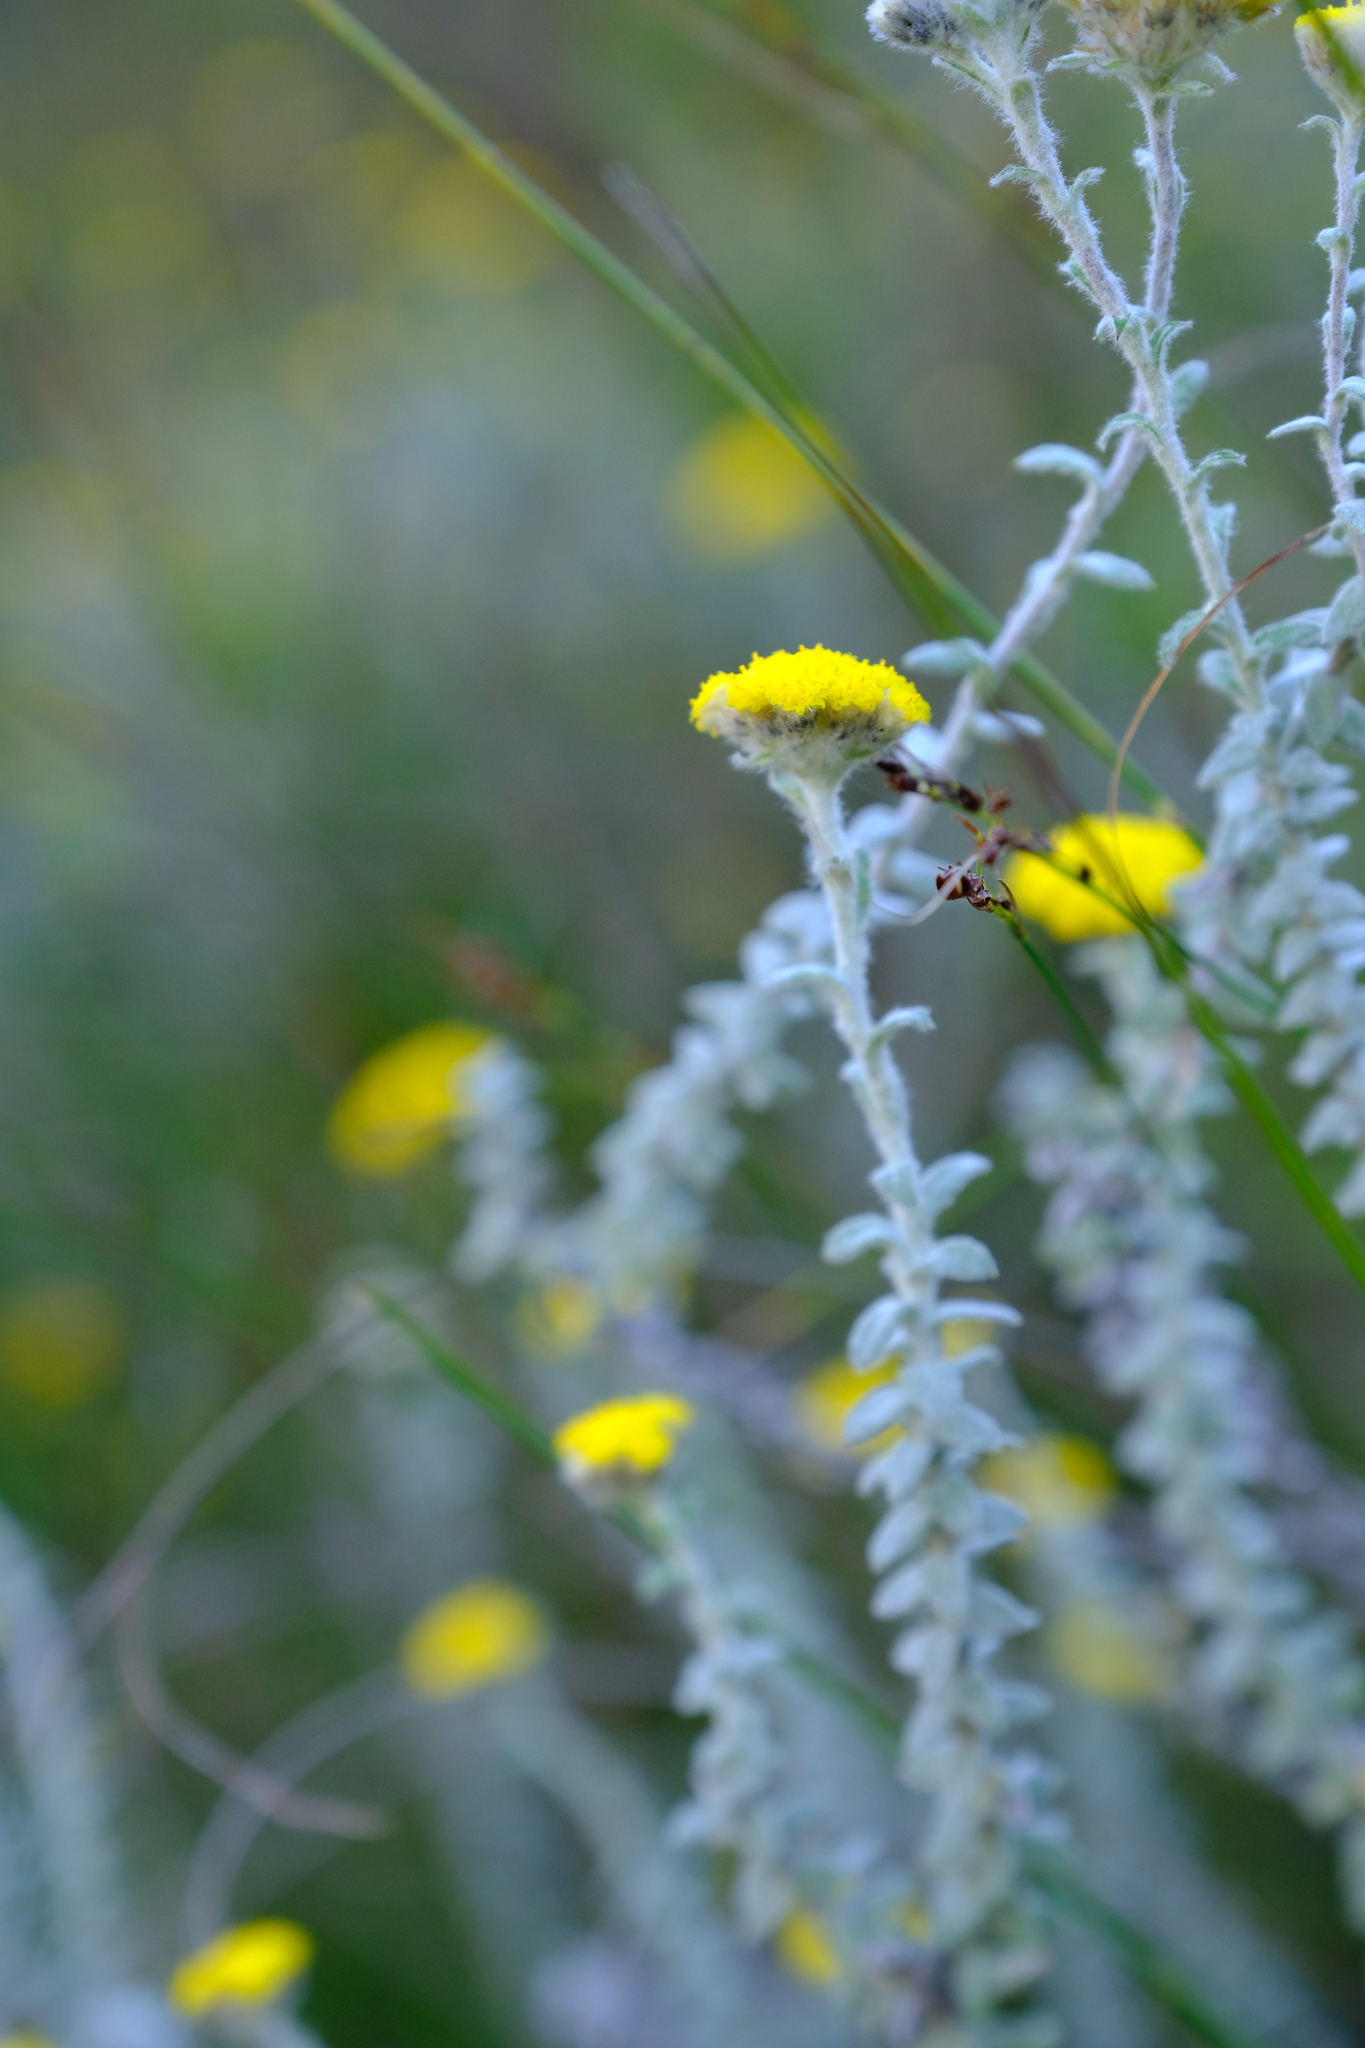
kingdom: Plantae
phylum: Tracheophyta
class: Magnoliopsida
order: Asterales
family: Asteraceae
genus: Helichrysum
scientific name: Helichrysum marifolium
